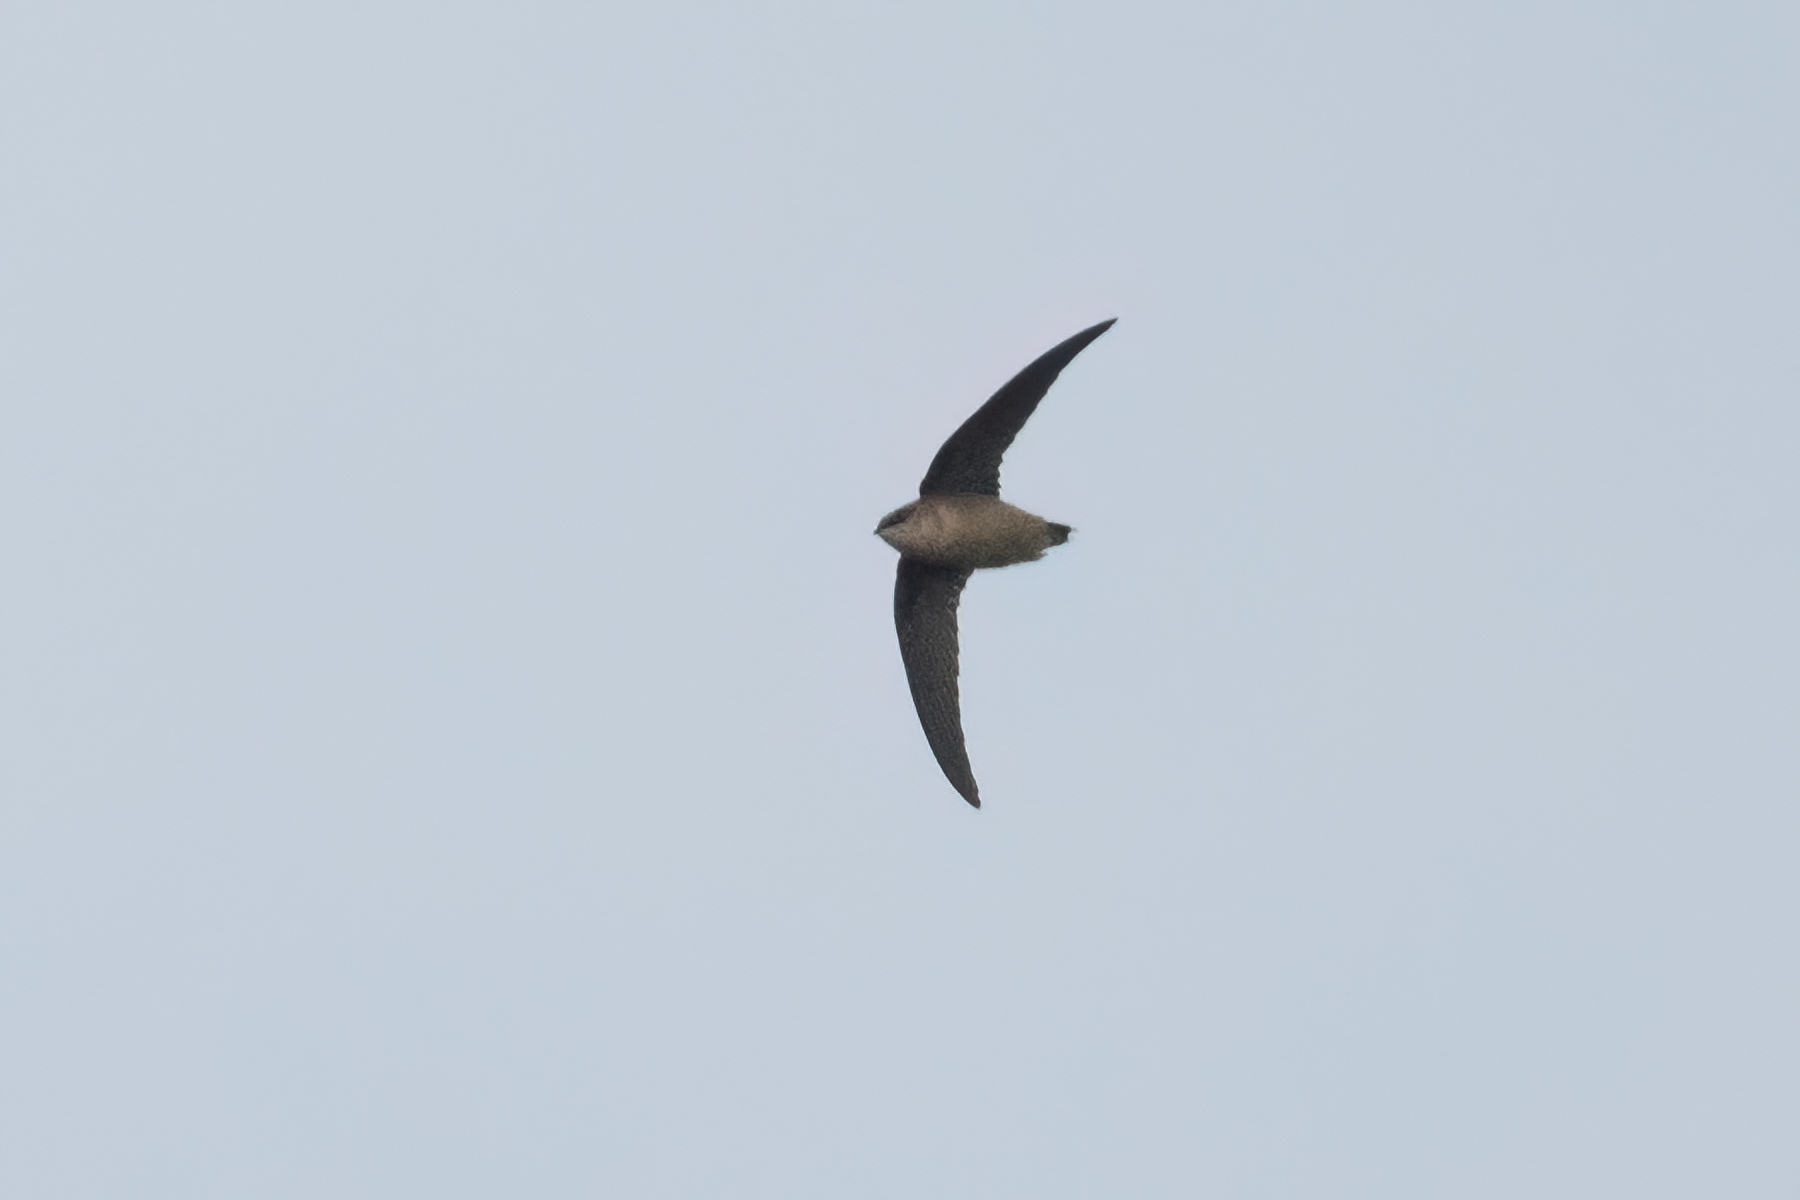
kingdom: Animalia
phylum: Chordata
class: Aves
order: Apodiformes
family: Apodidae
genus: Chaetura
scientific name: Chaetura vauxi
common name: Vaux's swift
